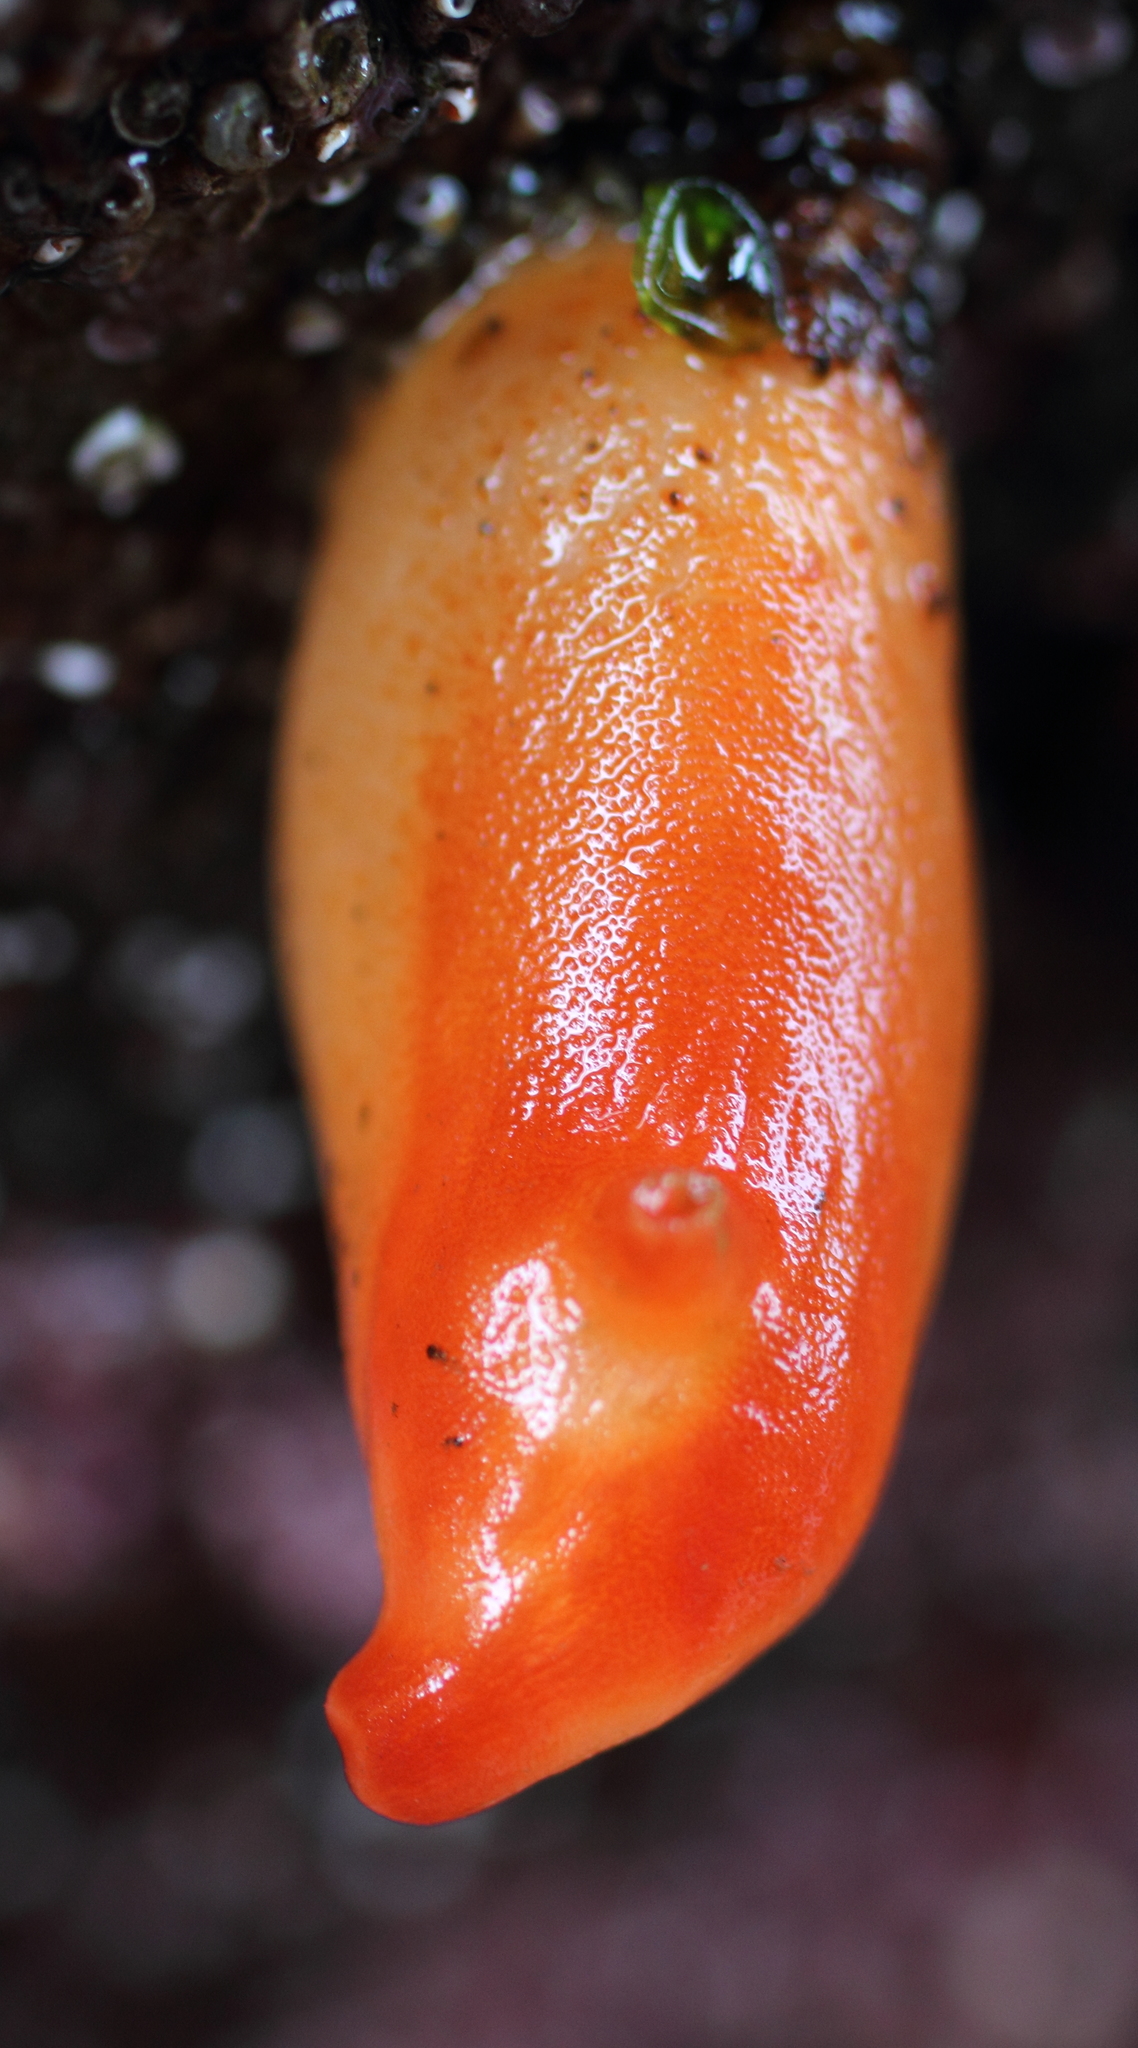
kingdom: Animalia
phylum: Chordata
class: Ascidiacea
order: Stolidobranchia
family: Pyuridae
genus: Halocynthia
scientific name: Halocynthia aurantium
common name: Sea peach
